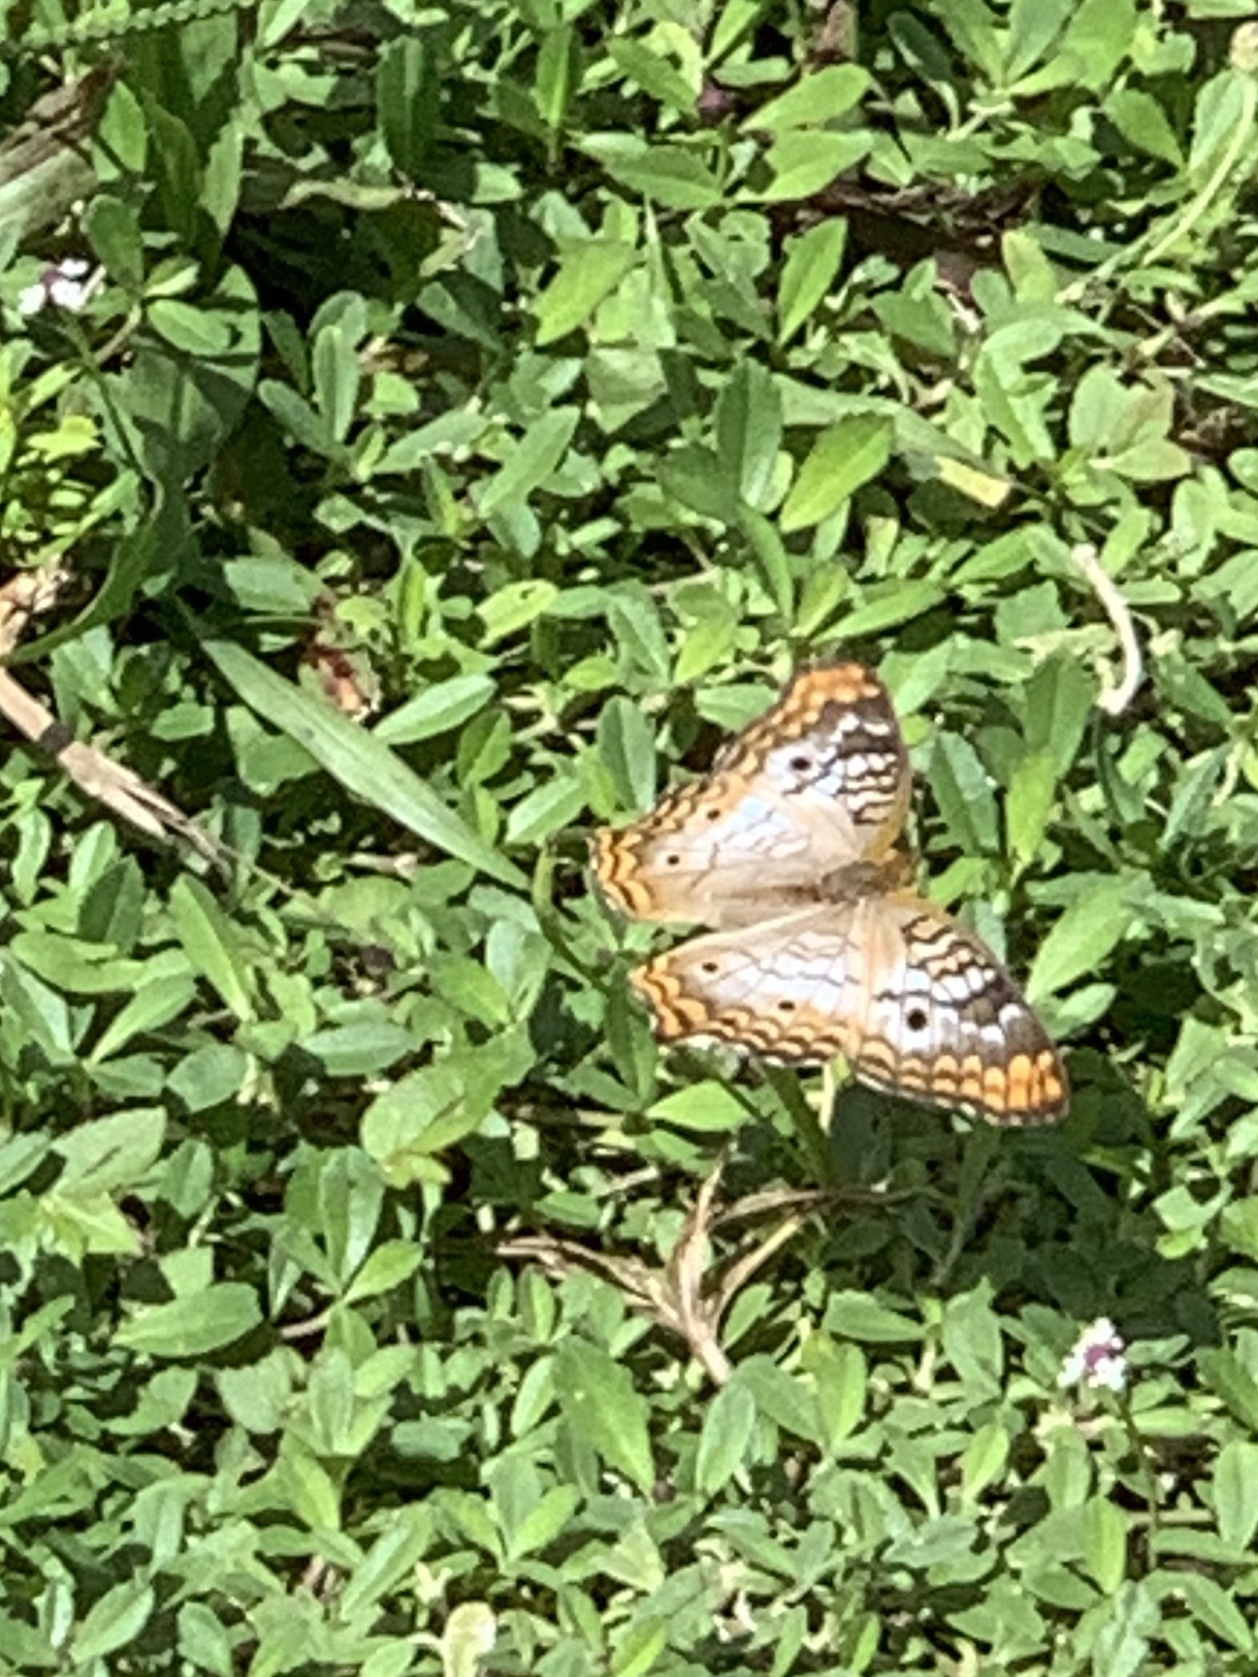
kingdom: Animalia
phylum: Arthropoda
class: Insecta
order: Lepidoptera
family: Nymphalidae
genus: Anartia
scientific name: Anartia jatrophae
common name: White peacock
